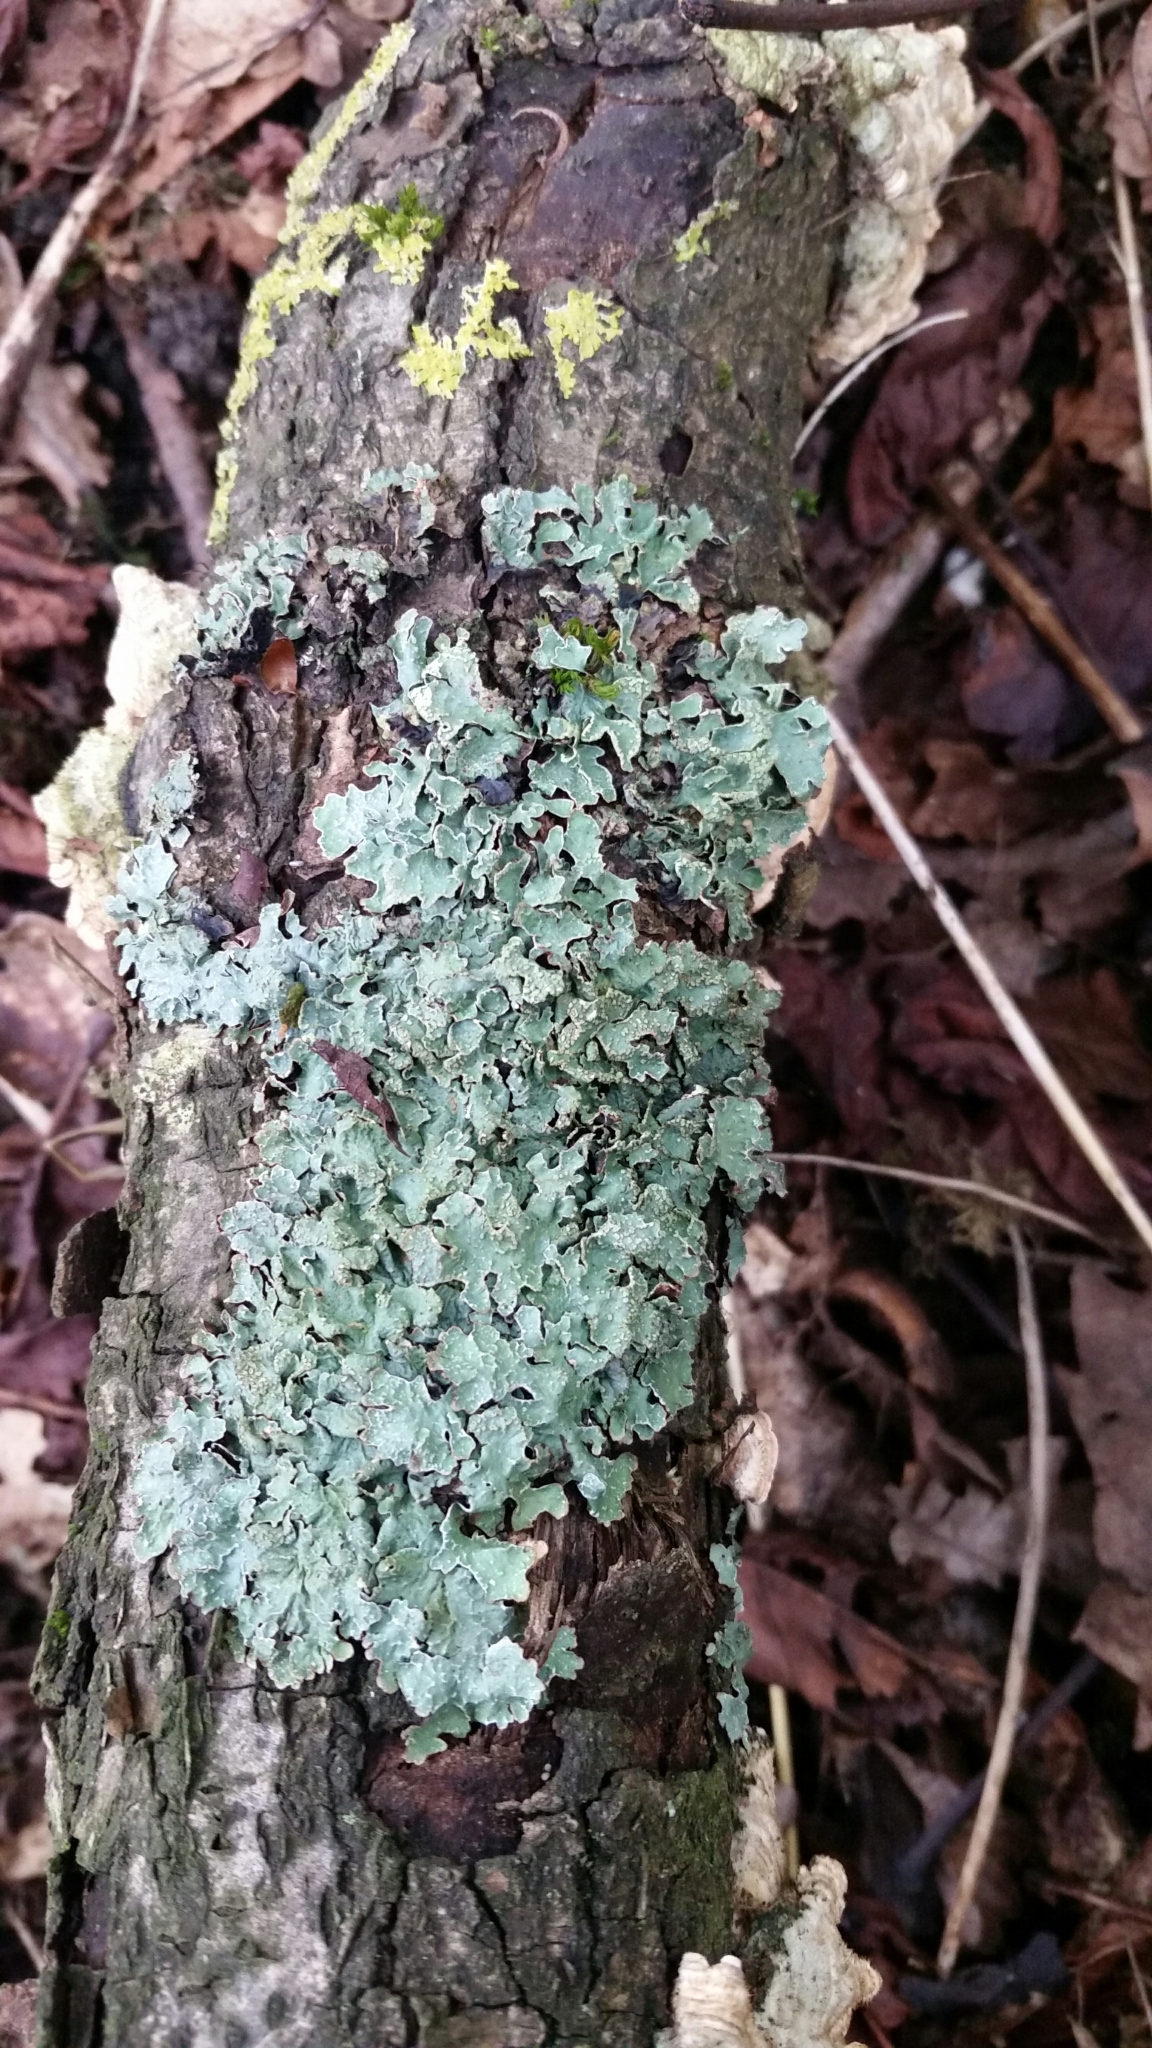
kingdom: Fungi
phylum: Ascomycota
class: Lecanoromycetes
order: Lecanorales
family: Parmeliaceae
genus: Parmelia
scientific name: Parmelia sulcata
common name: Netted shield lichen
